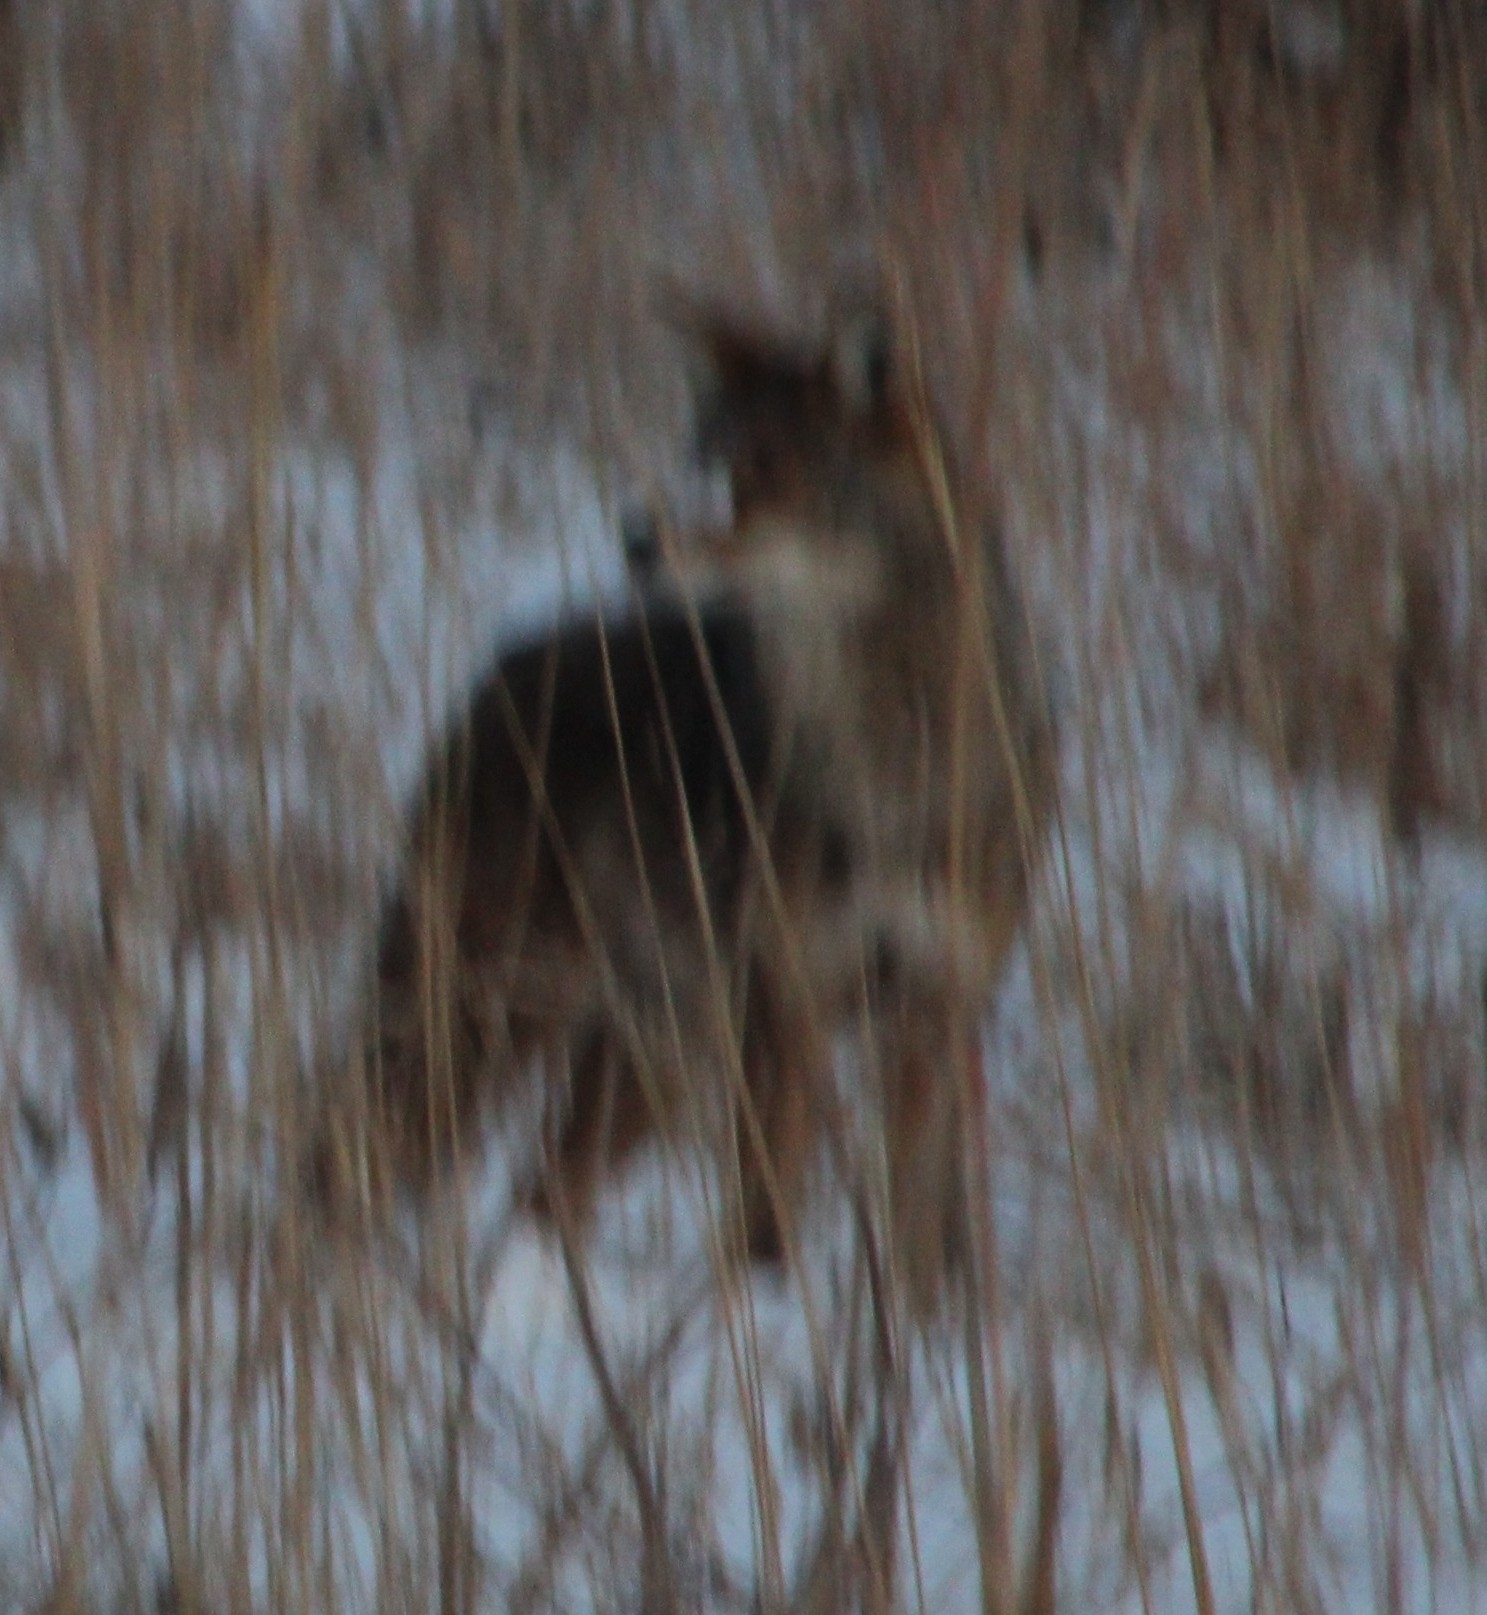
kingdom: Animalia
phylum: Chordata
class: Mammalia
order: Carnivora
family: Canidae
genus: Canis
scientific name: Canis latrans
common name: Coyote
